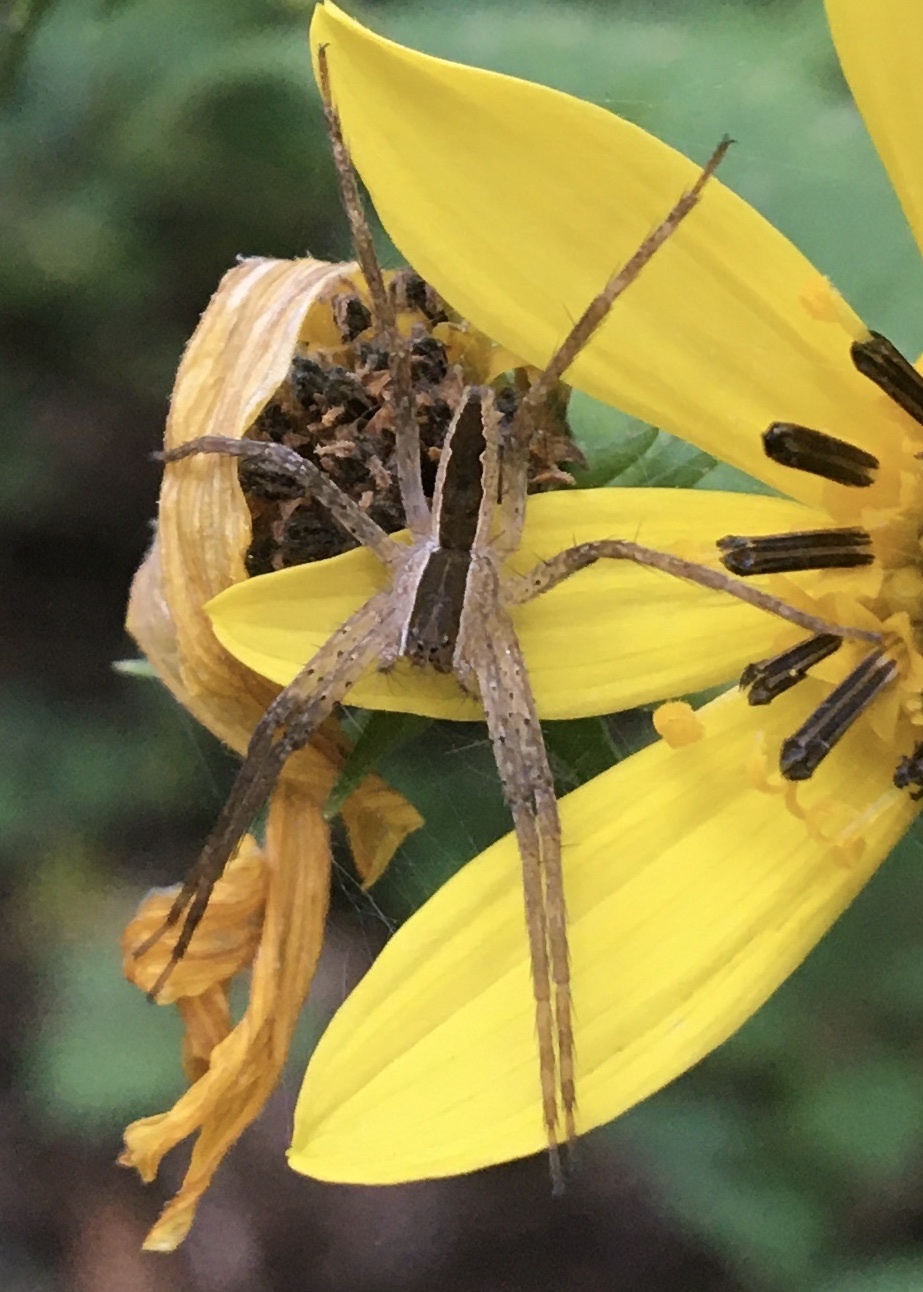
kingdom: Animalia
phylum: Arthropoda
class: Arachnida
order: Araneae
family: Pisauridae
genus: Pisaurina
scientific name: Pisaurina mira
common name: American nursery web spider
